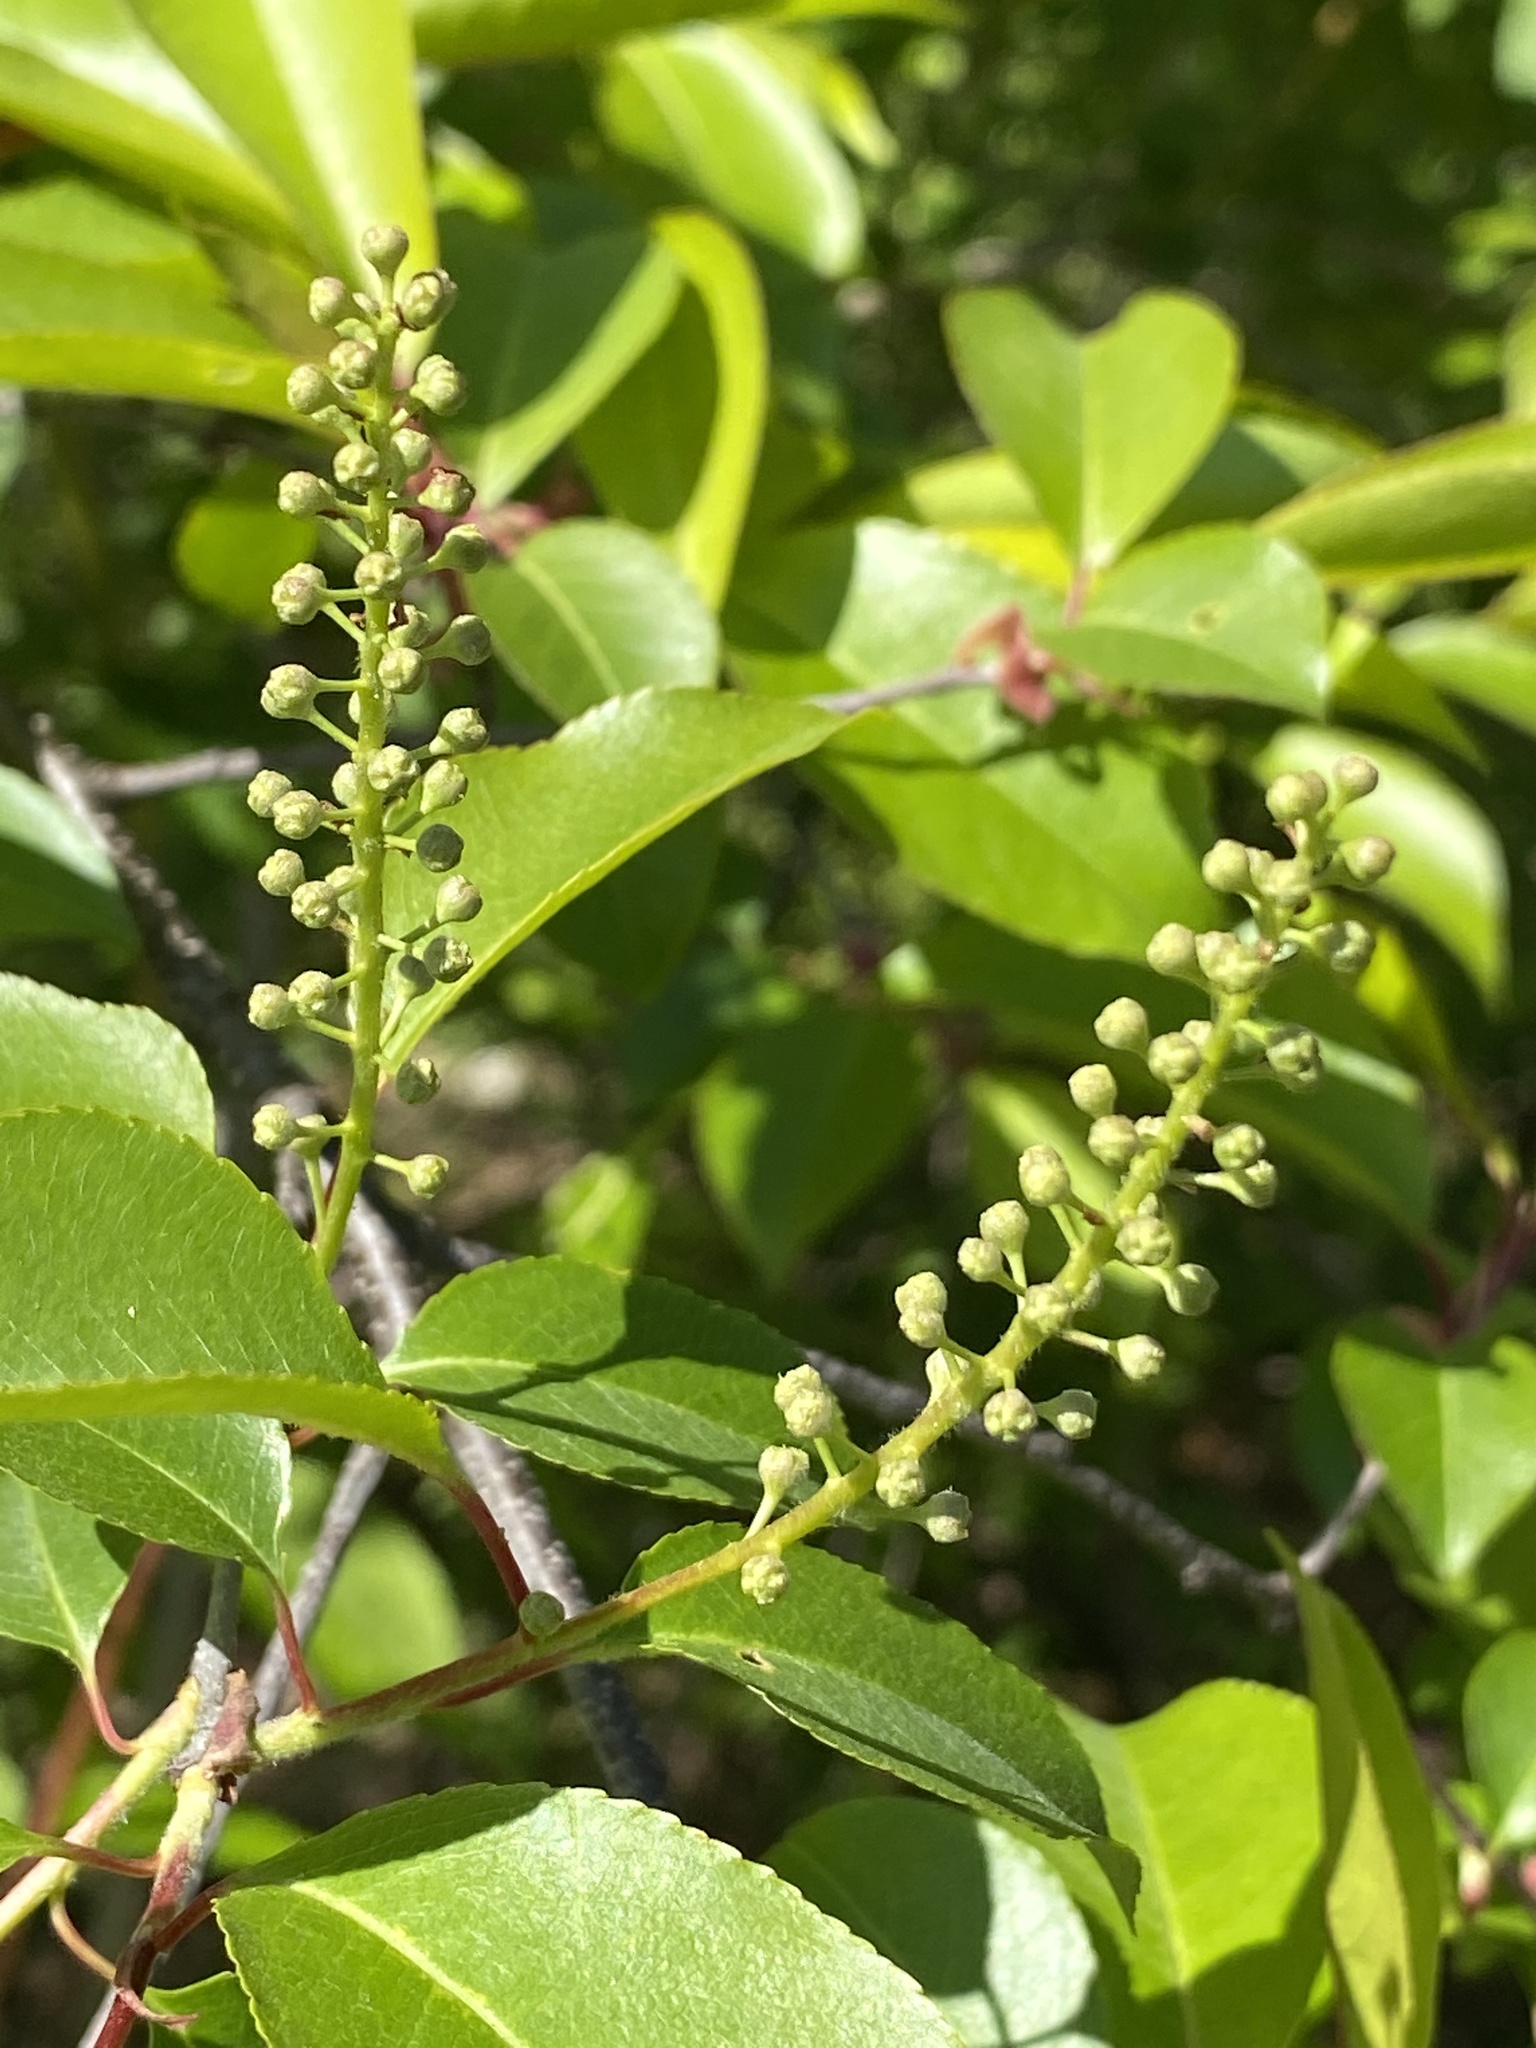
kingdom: Plantae
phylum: Tracheophyta
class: Magnoliopsida
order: Rosales
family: Rosaceae
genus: Prunus
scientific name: Prunus serotina
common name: Black cherry
